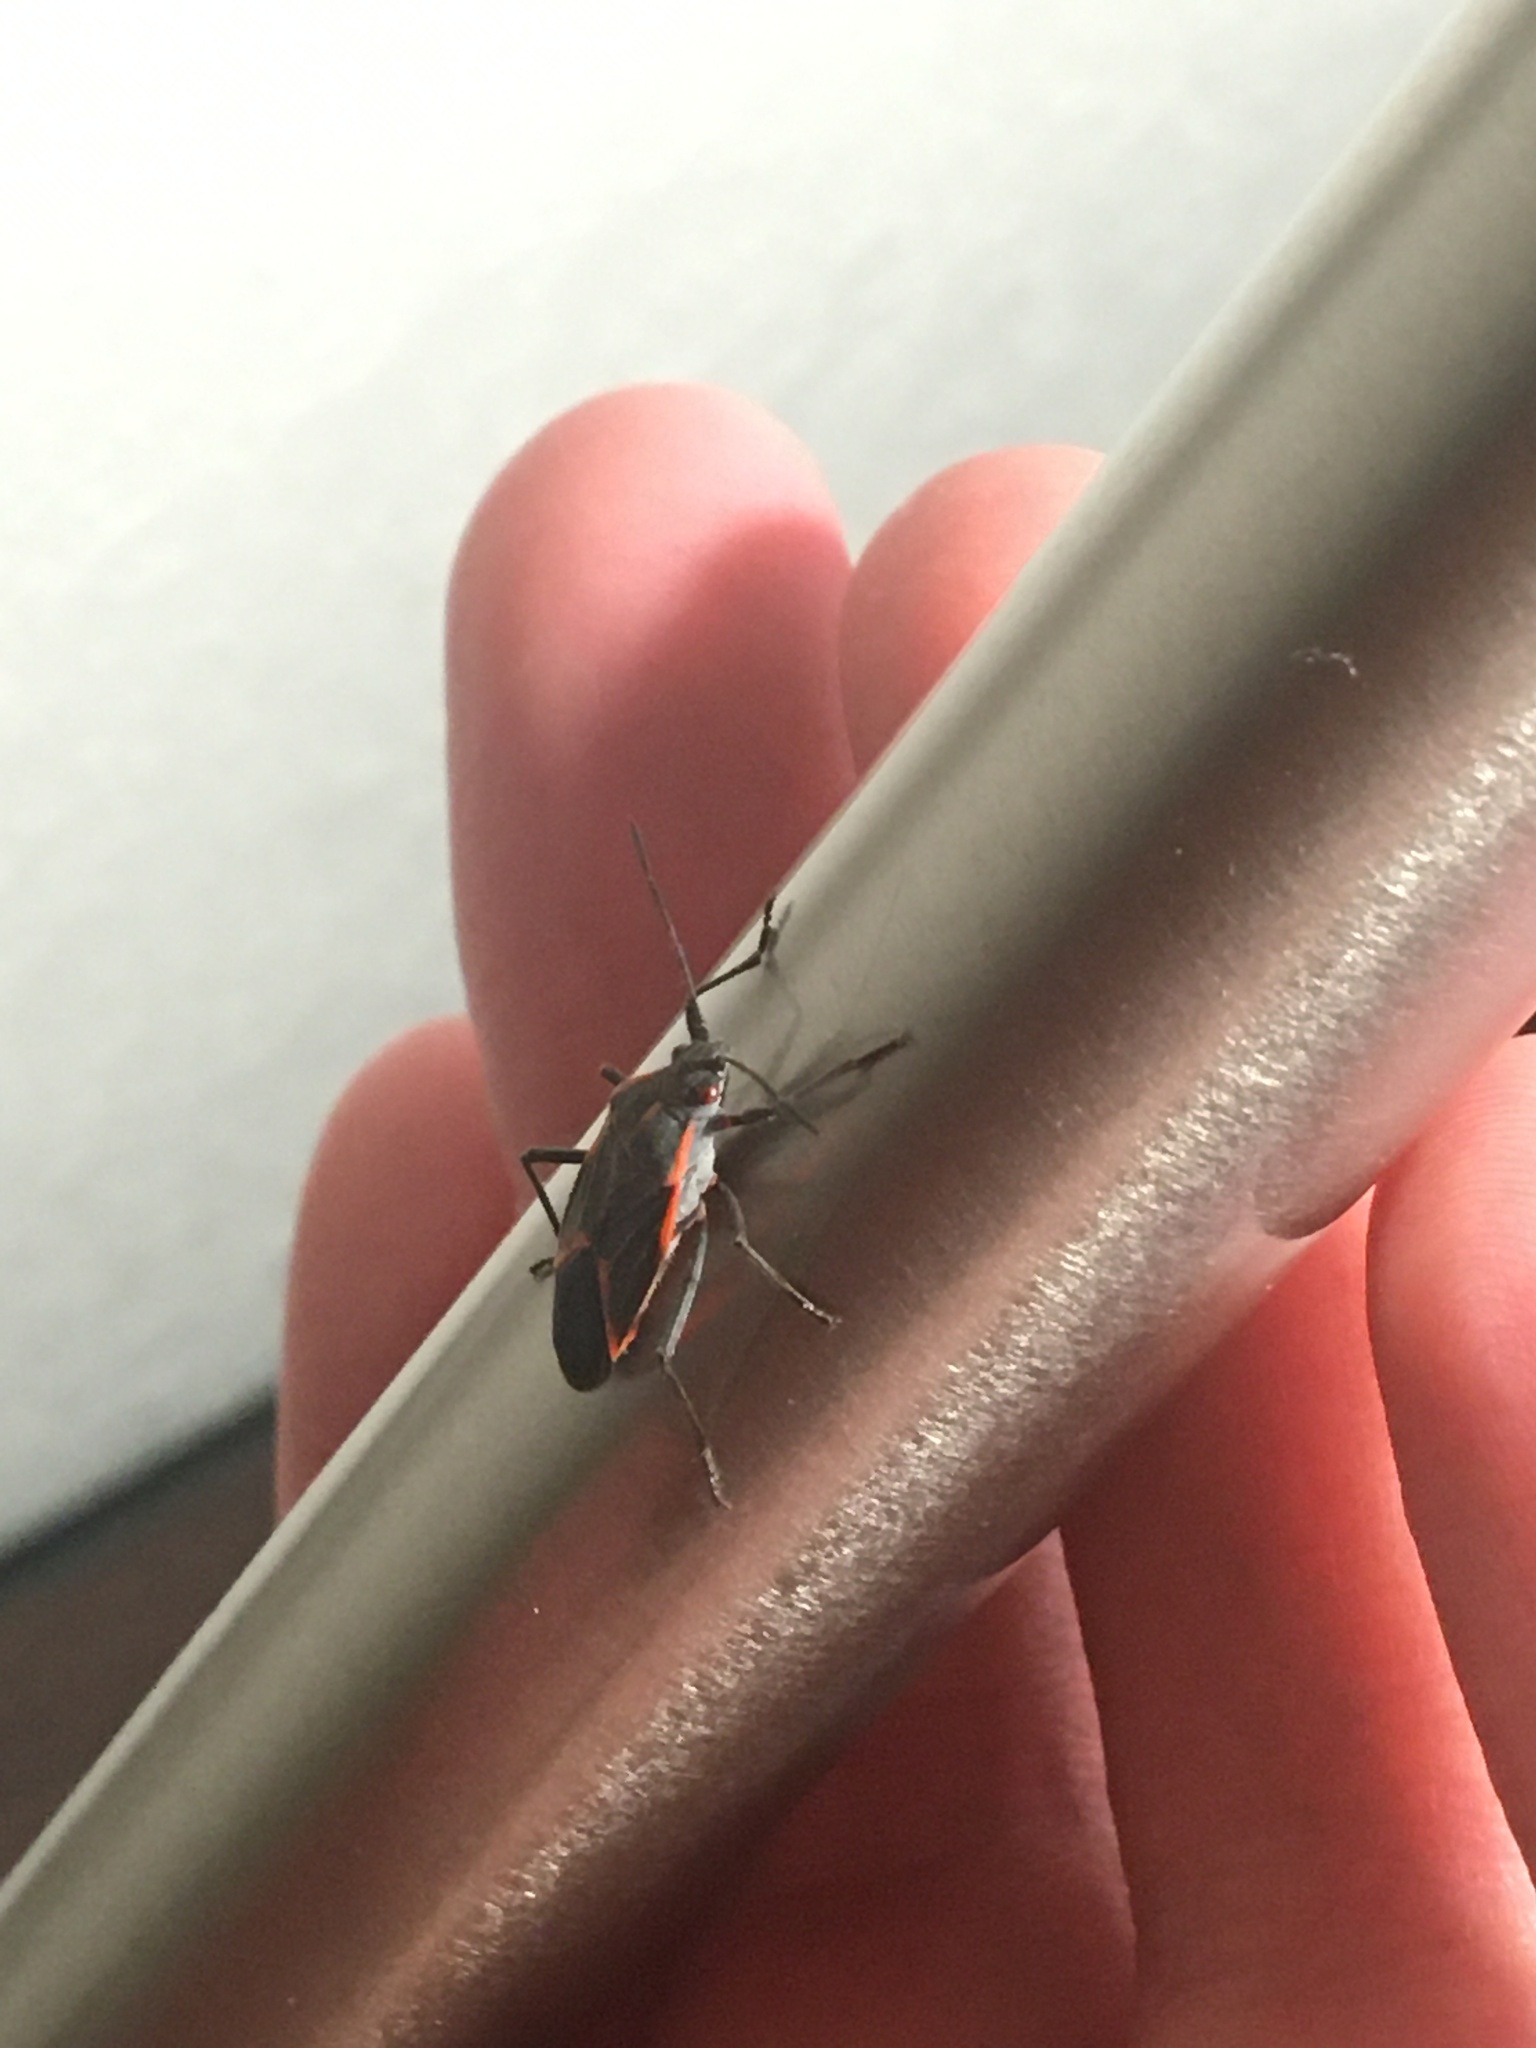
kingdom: Animalia
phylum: Arthropoda
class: Insecta
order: Hemiptera
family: Rhopalidae
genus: Boisea
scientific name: Boisea trivittata
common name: Boxelder bug
